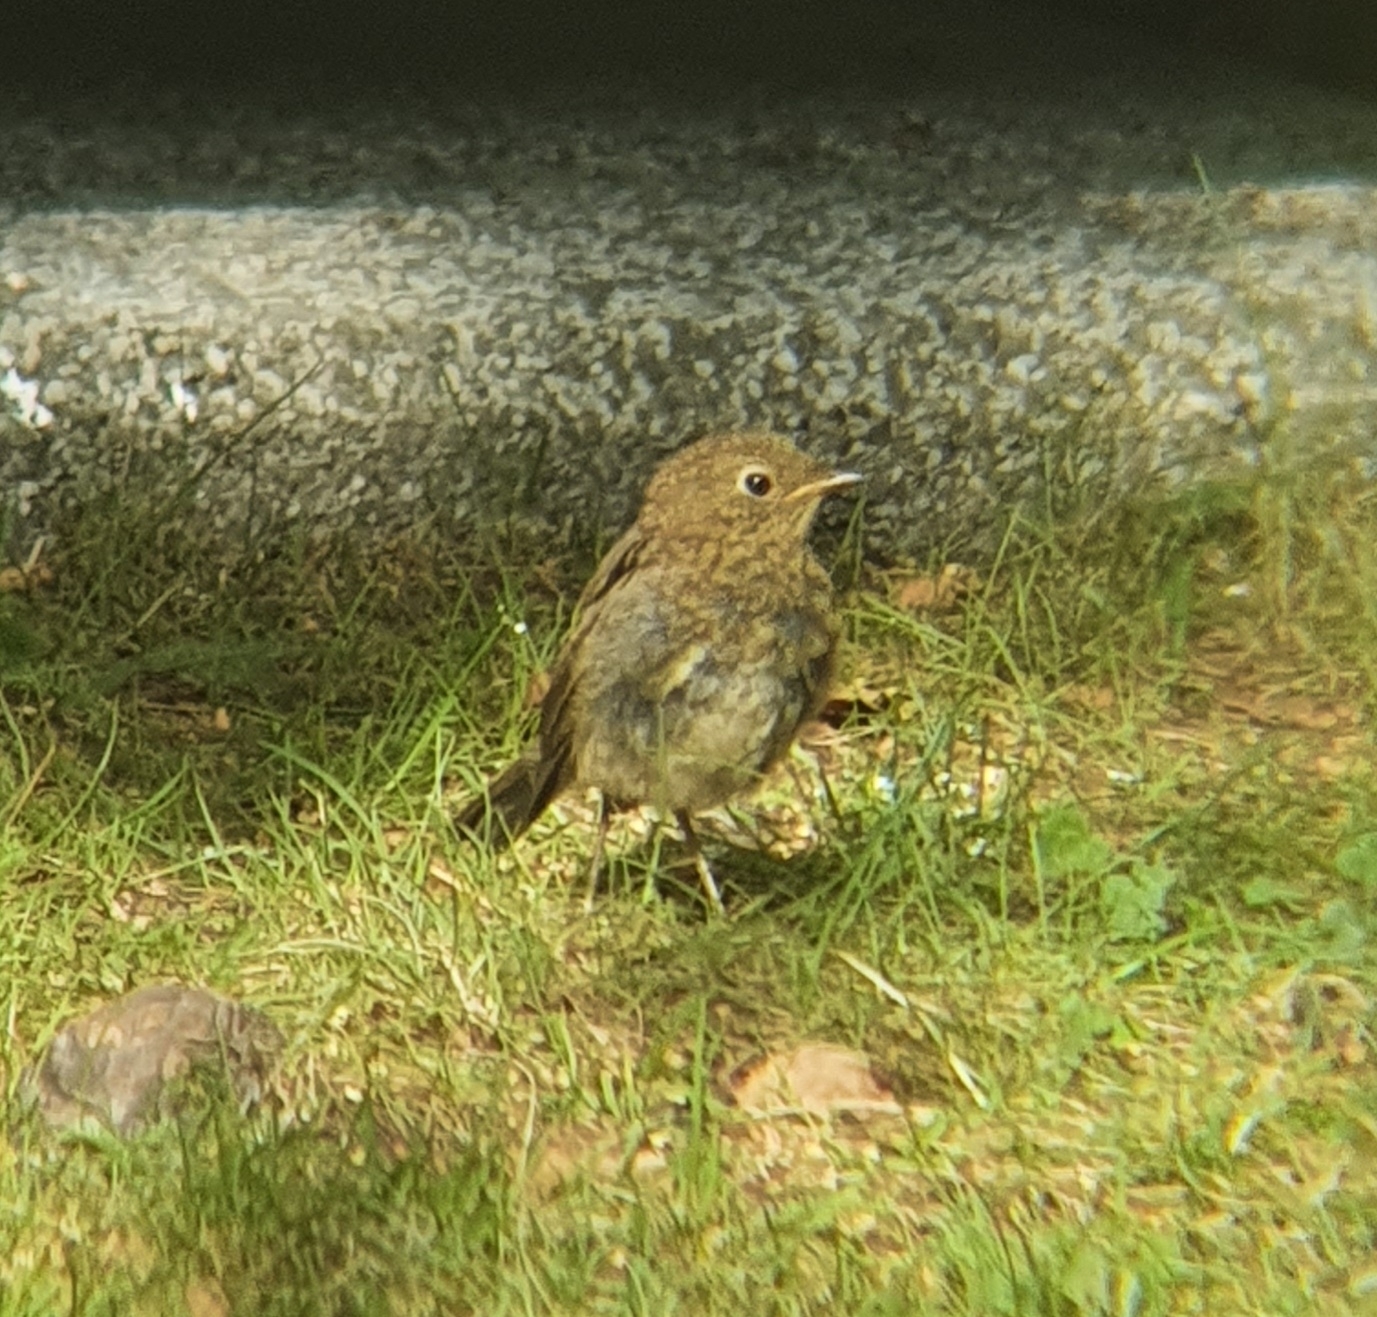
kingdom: Animalia
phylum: Chordata
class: Aves
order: Passeriformes
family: Muscicapidae
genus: Erithacus
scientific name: Erithacus rubecula
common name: European robin
